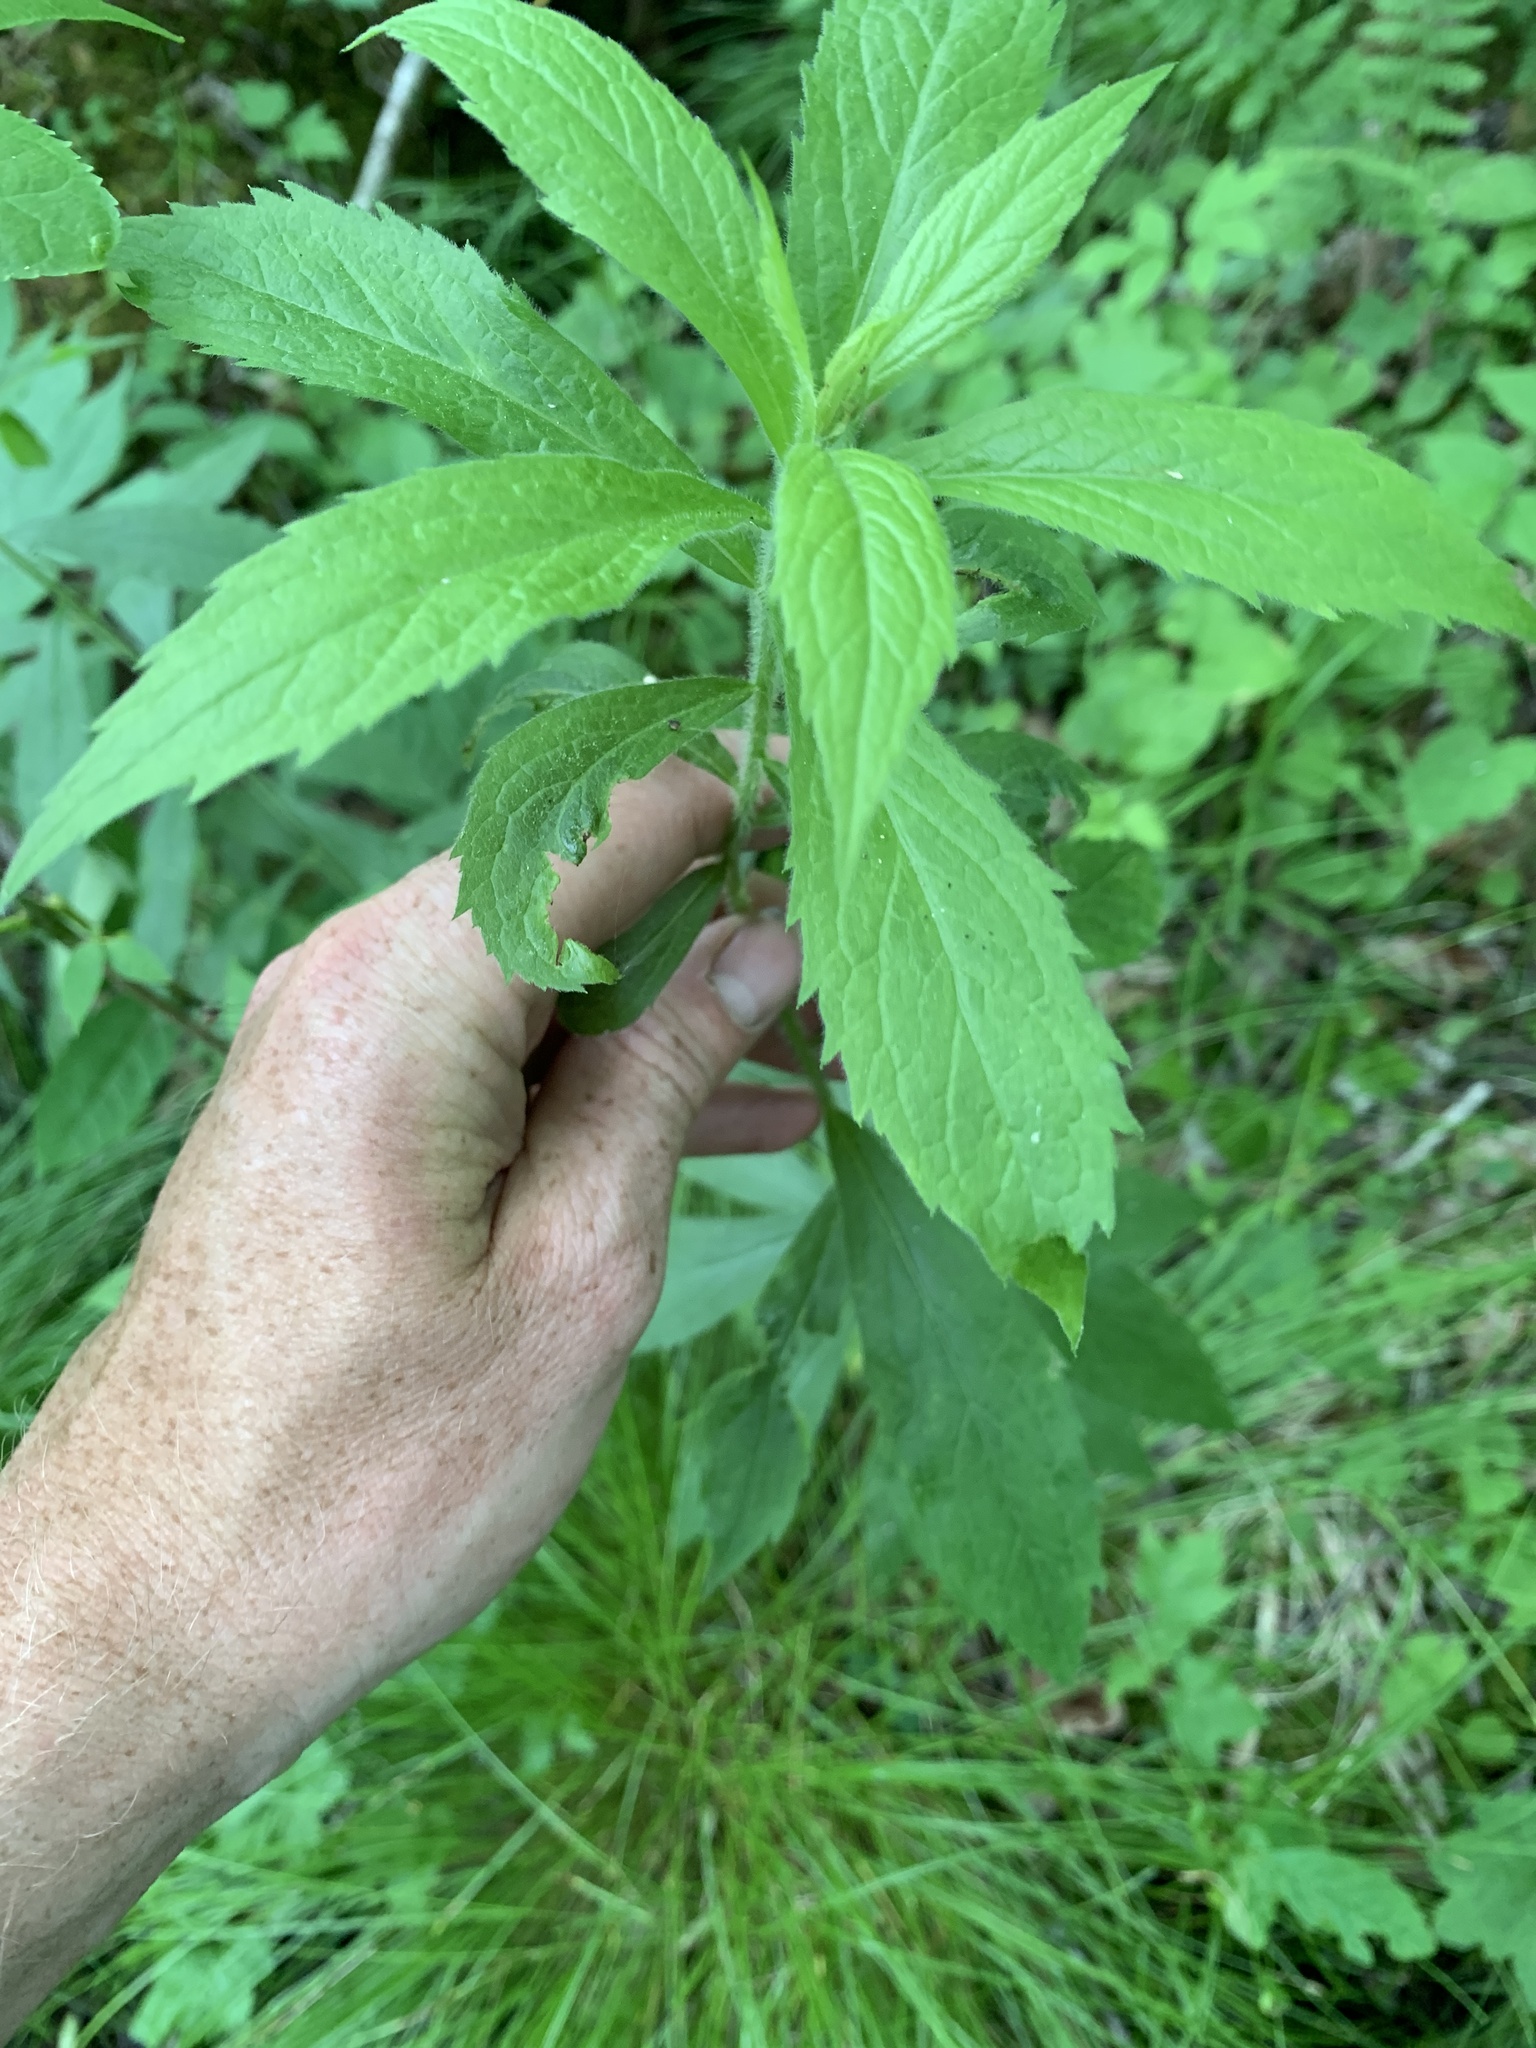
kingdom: Plantae
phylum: Tracheophyta
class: Magnoliopsida
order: Asterales
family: Asteraceae
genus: Solidago
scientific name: Solidago rugosa
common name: Rough-stemmed goldenrod
